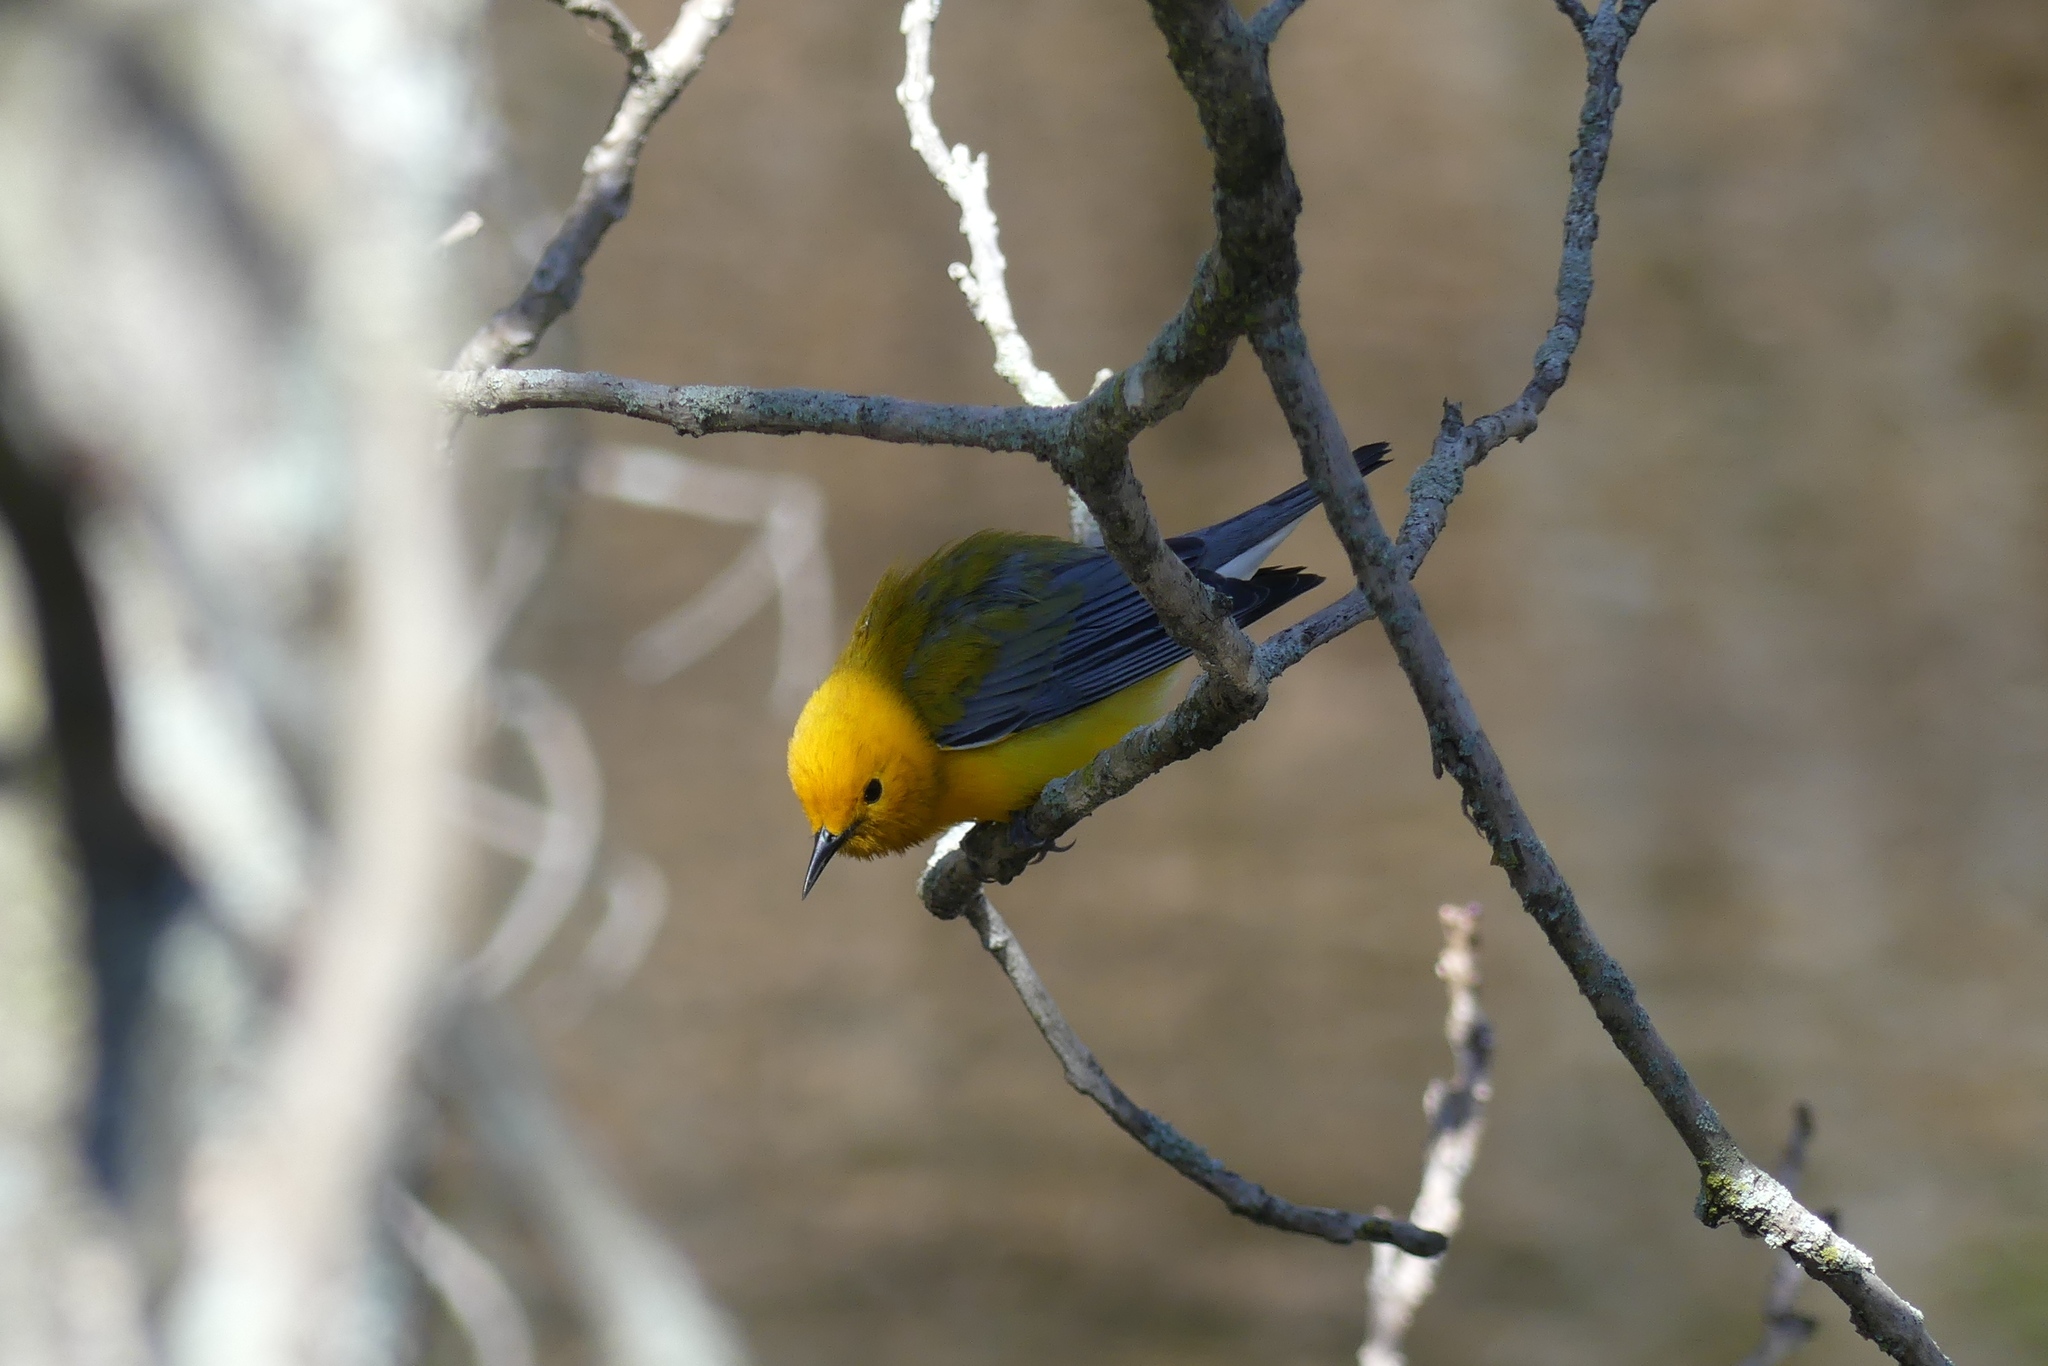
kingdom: Animalia
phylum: Chordata
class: Aves
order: Passeriformes
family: Parulidae
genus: Protonotaria
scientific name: Protonotaria citrea
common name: Prothonotary warbler
